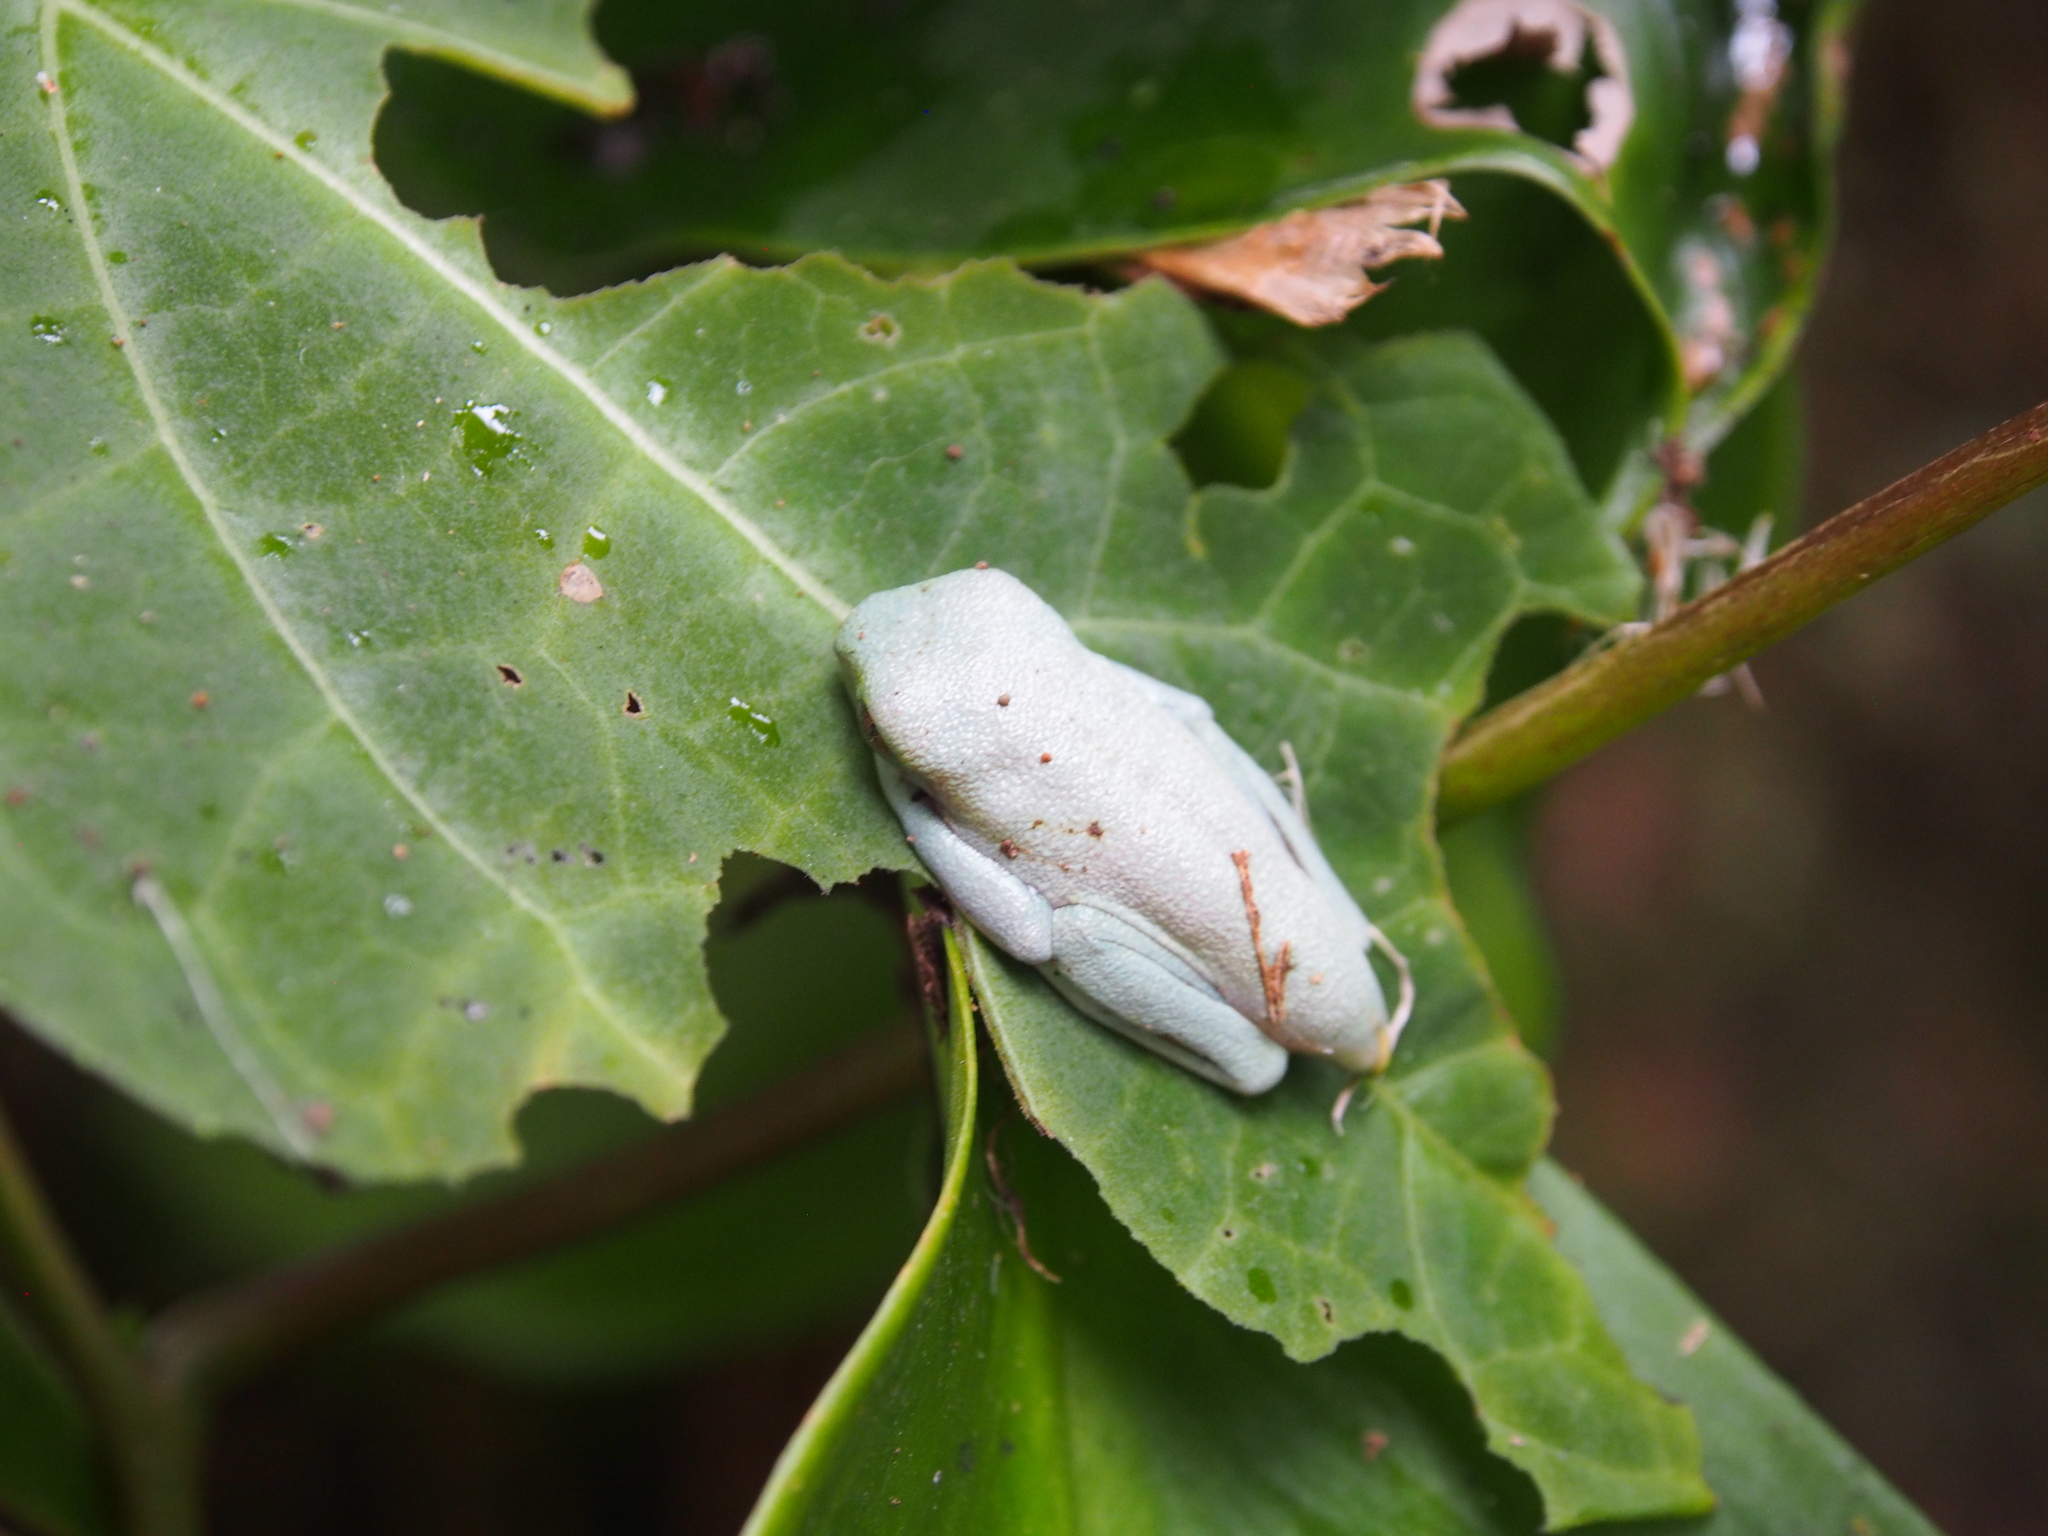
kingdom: Animalia
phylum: Chordata
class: Amphibia
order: Anura
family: Phyllomedusidae
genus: Agalychnis
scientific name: Agalychnis callidryas
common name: Red-eyed treefrog
